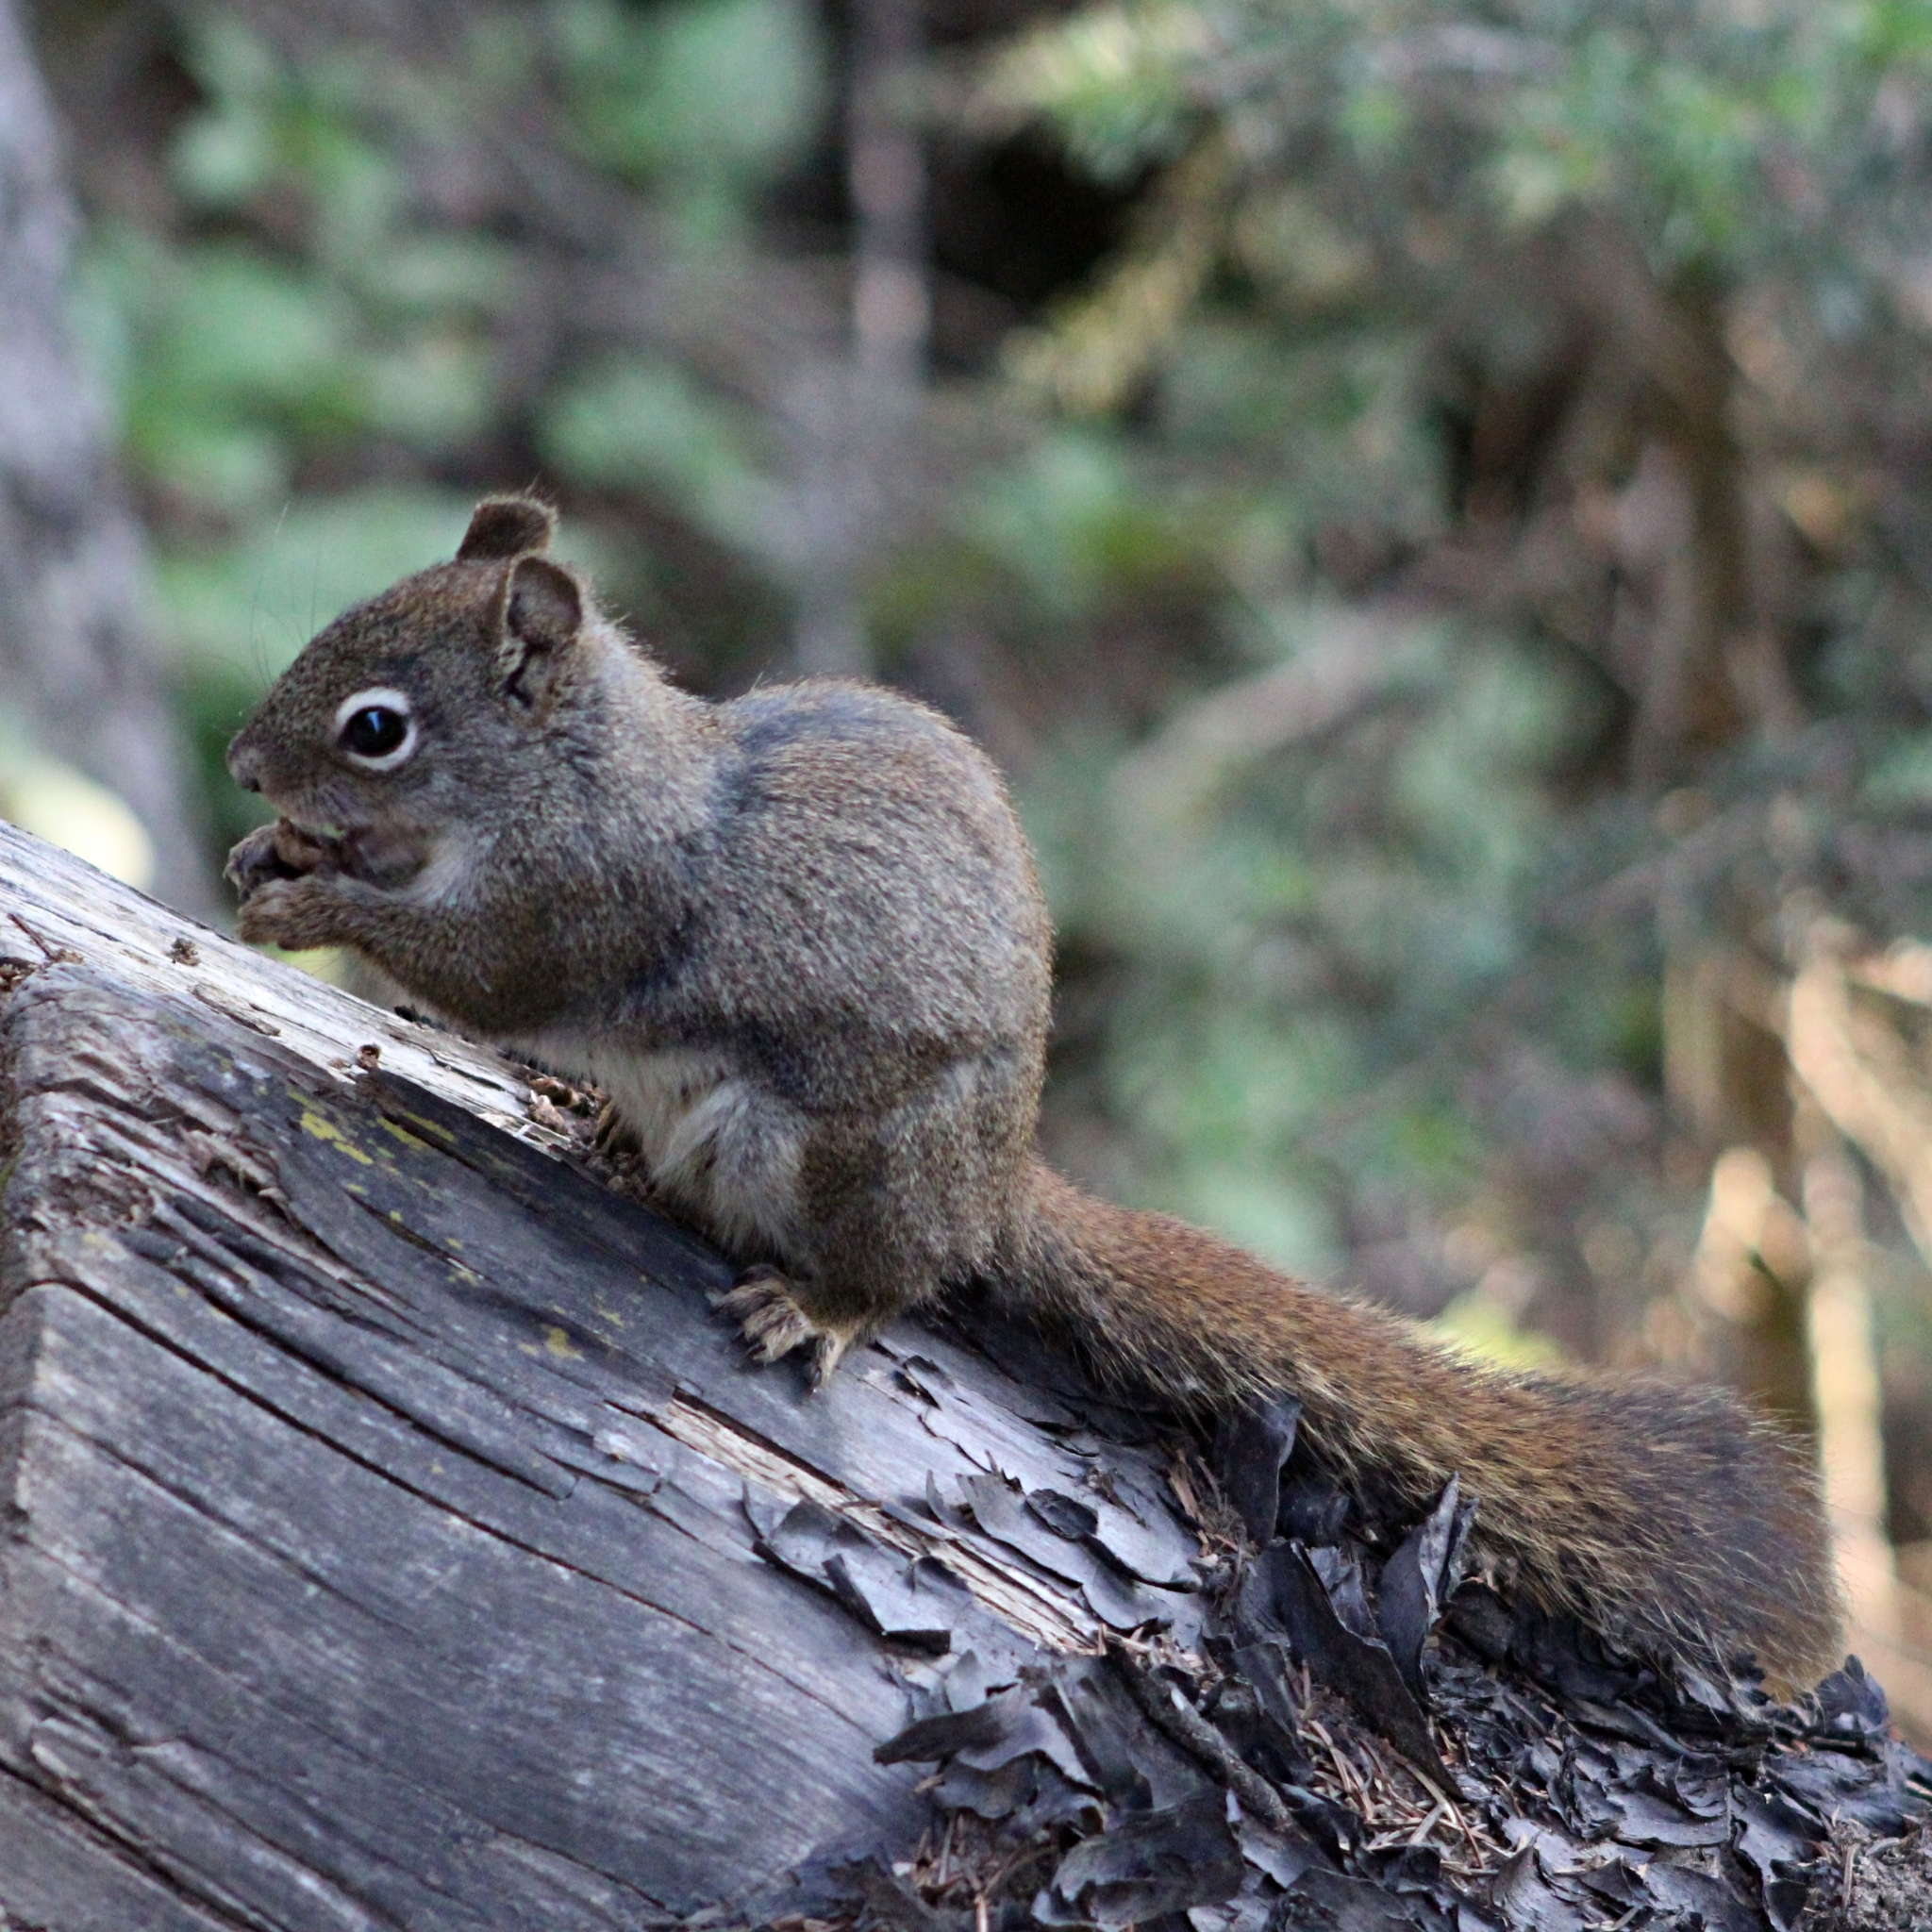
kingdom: Animalia
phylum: Chordata
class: Mammalia
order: Rodentia
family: Sciuridae
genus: Tamiasciurus
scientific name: Tamiasciurus hudsonicus
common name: Red squirrel
